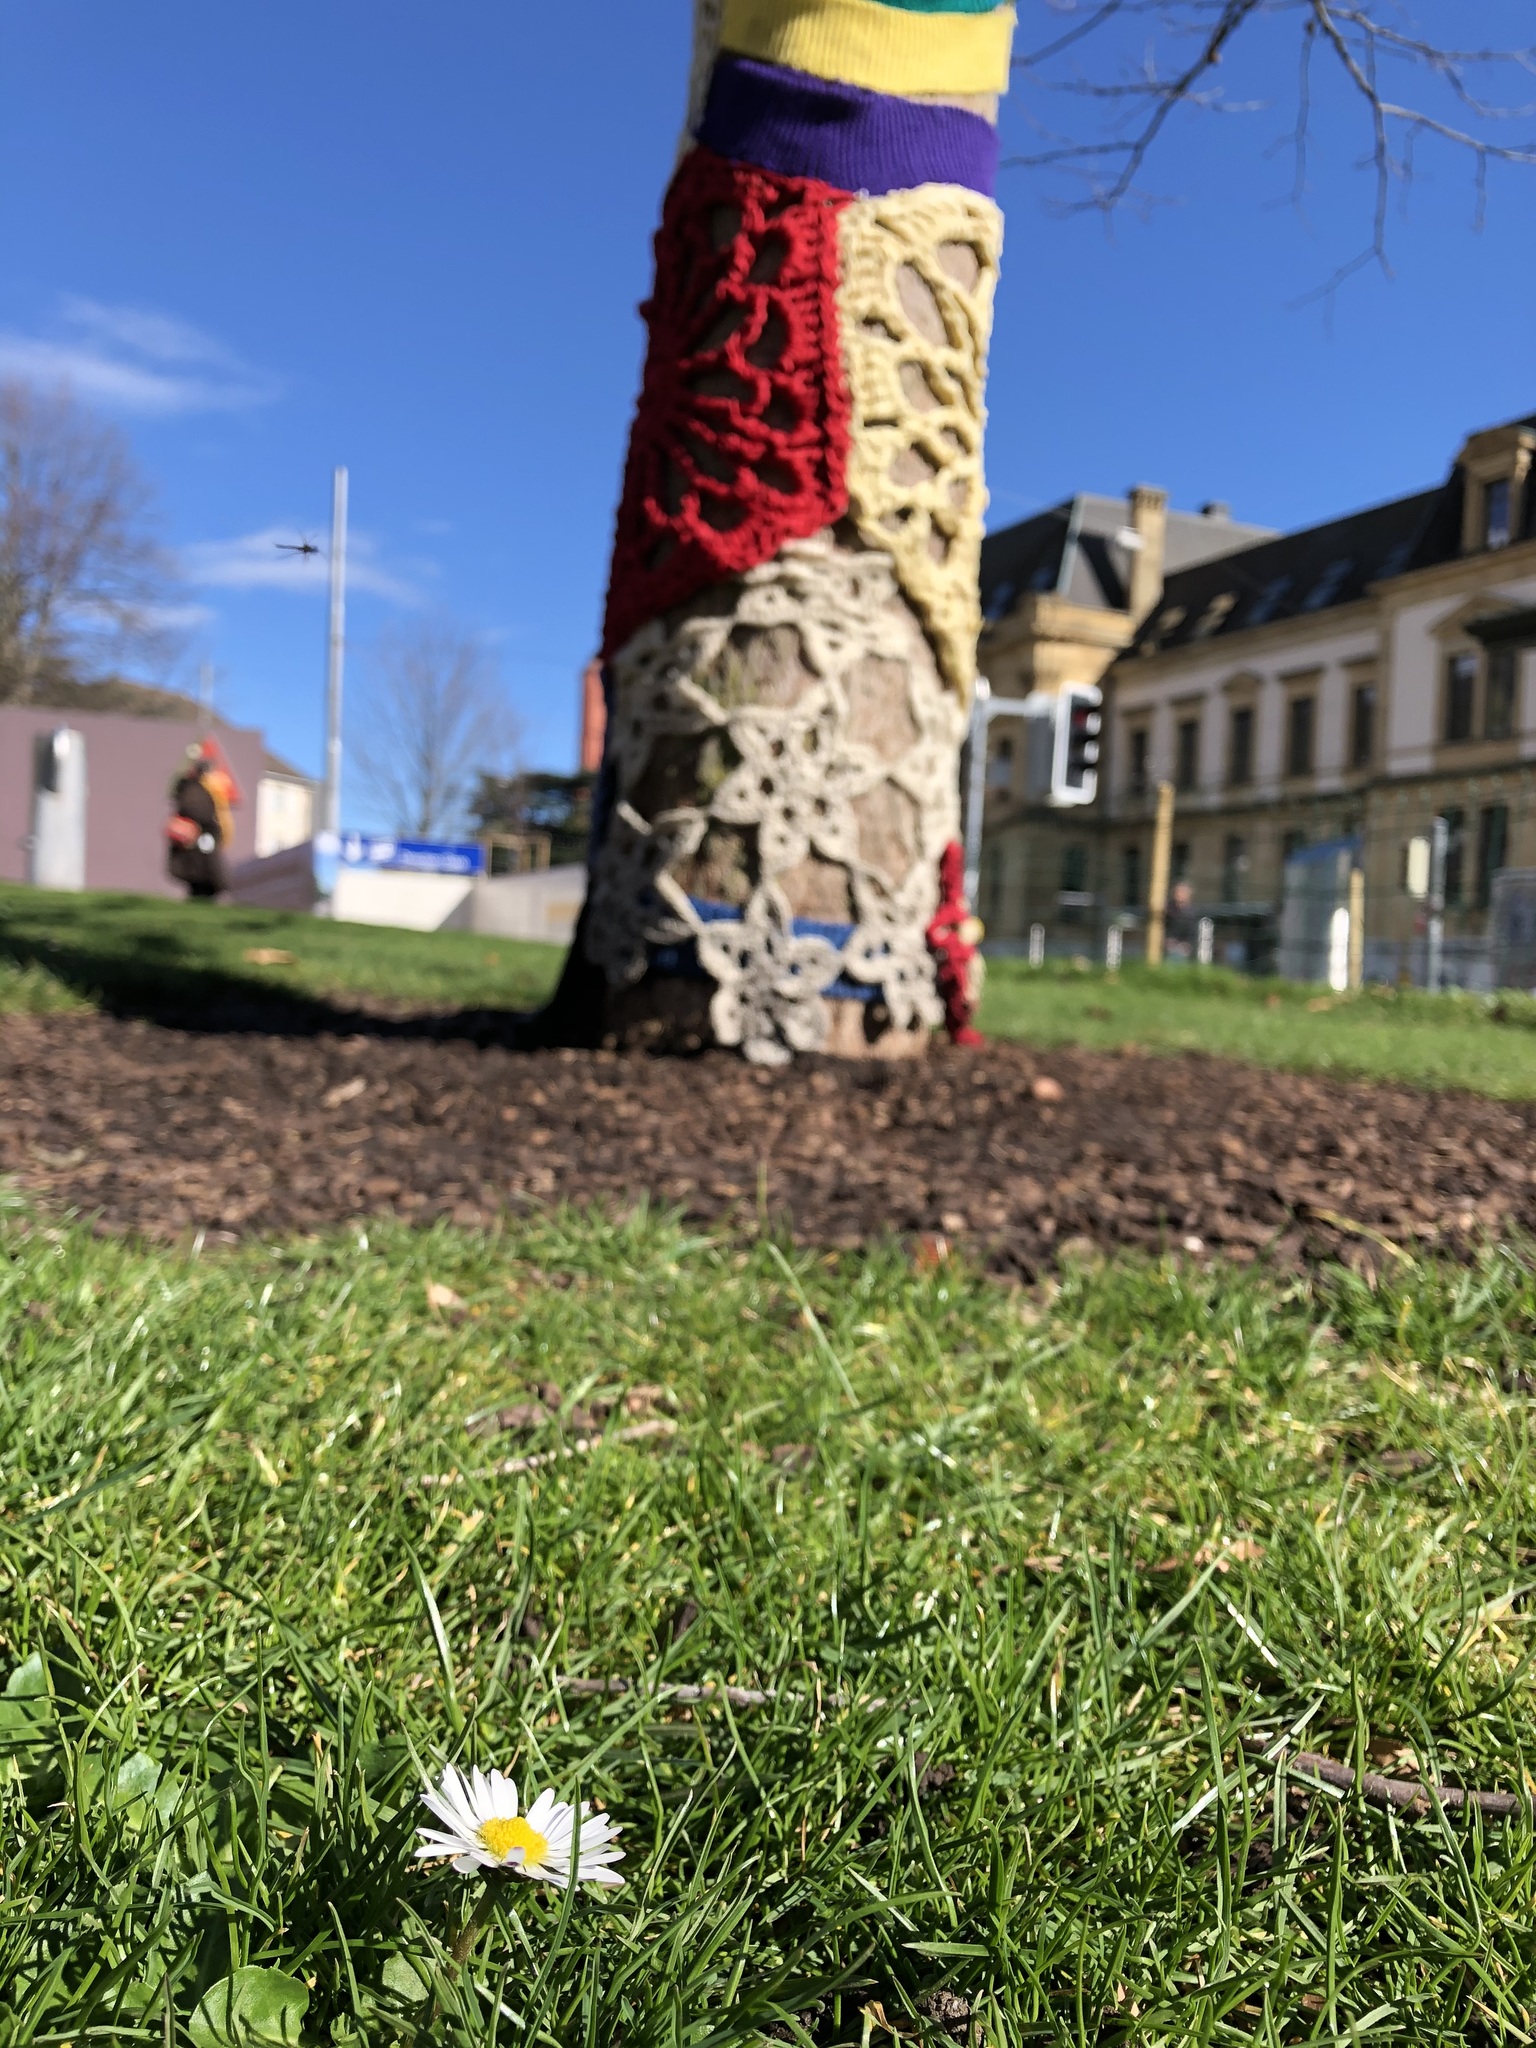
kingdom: Plantae
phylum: Tracheophyta
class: Magnoliopsida
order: Asterales
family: Asteraceae
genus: Bellis
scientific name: Bellis perennis
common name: Lawndaisy
